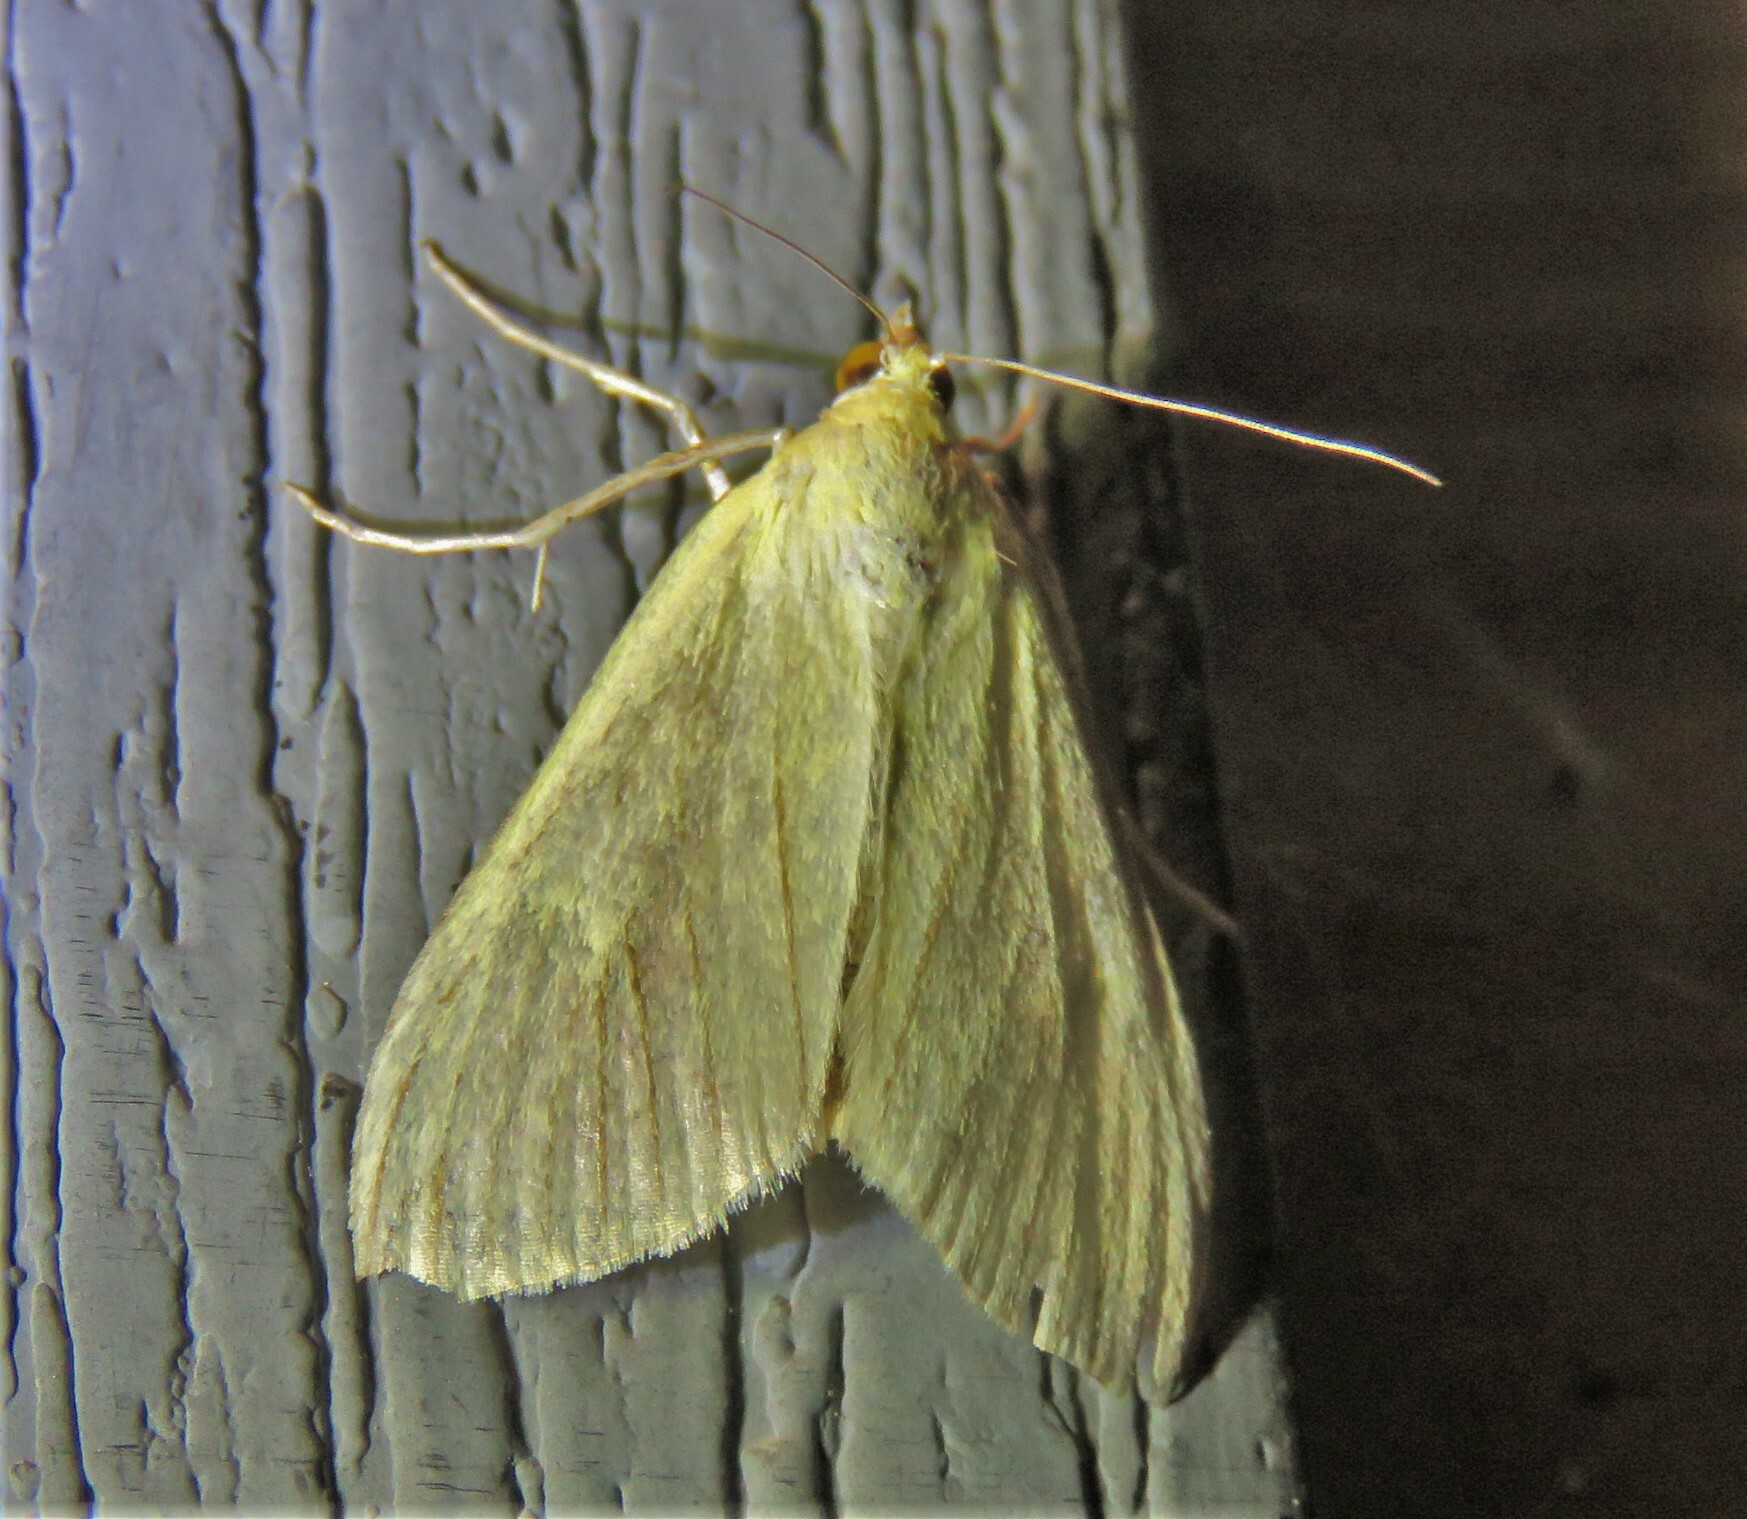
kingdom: Animalia
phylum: Arthropoda
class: Insecta
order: Lepidoptera
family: Crambidae
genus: Sitochroa
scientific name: Sitochroa palealis
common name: Greenish-yellow sitochroa moth
